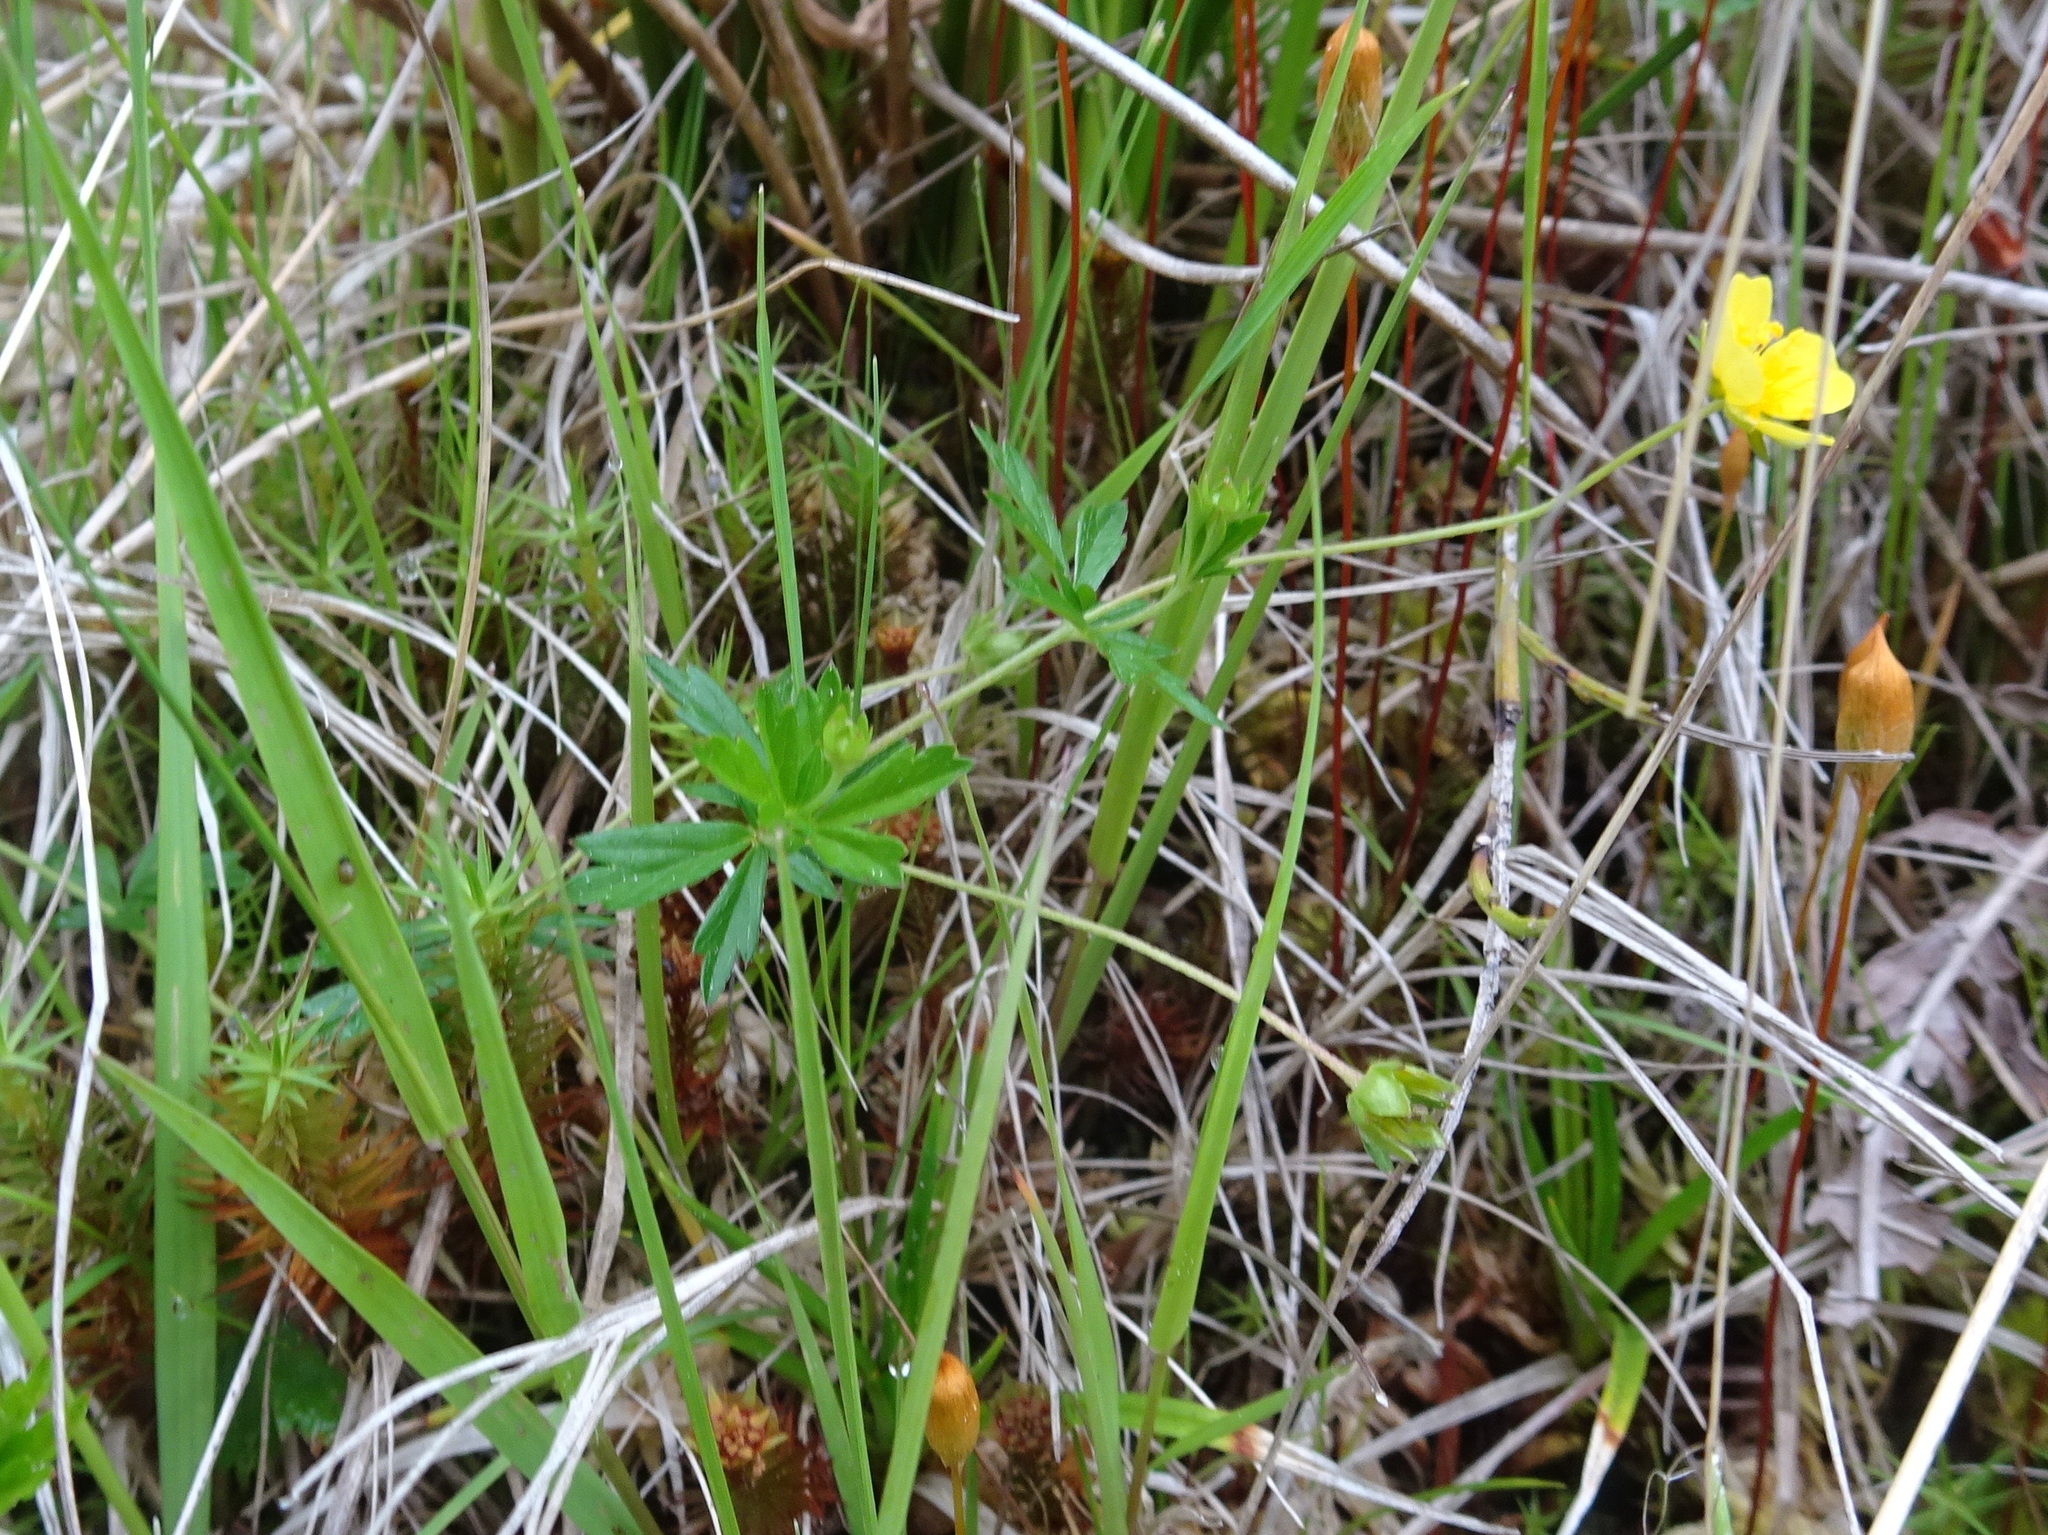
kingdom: Plantae
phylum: Tracheophyta
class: Magnoliopsida
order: Rosales
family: Rosaceae
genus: Potentilla
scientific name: Potentilla erecta
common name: Tormentil
